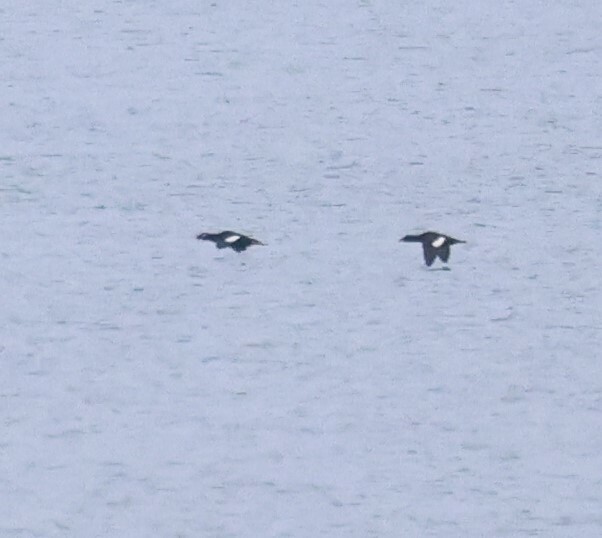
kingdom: Animalia
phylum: Chordata
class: Aves
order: Anseriformes
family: Anatidae
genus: Melanitta
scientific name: Melanitta deglandi
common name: White-winged scoter
